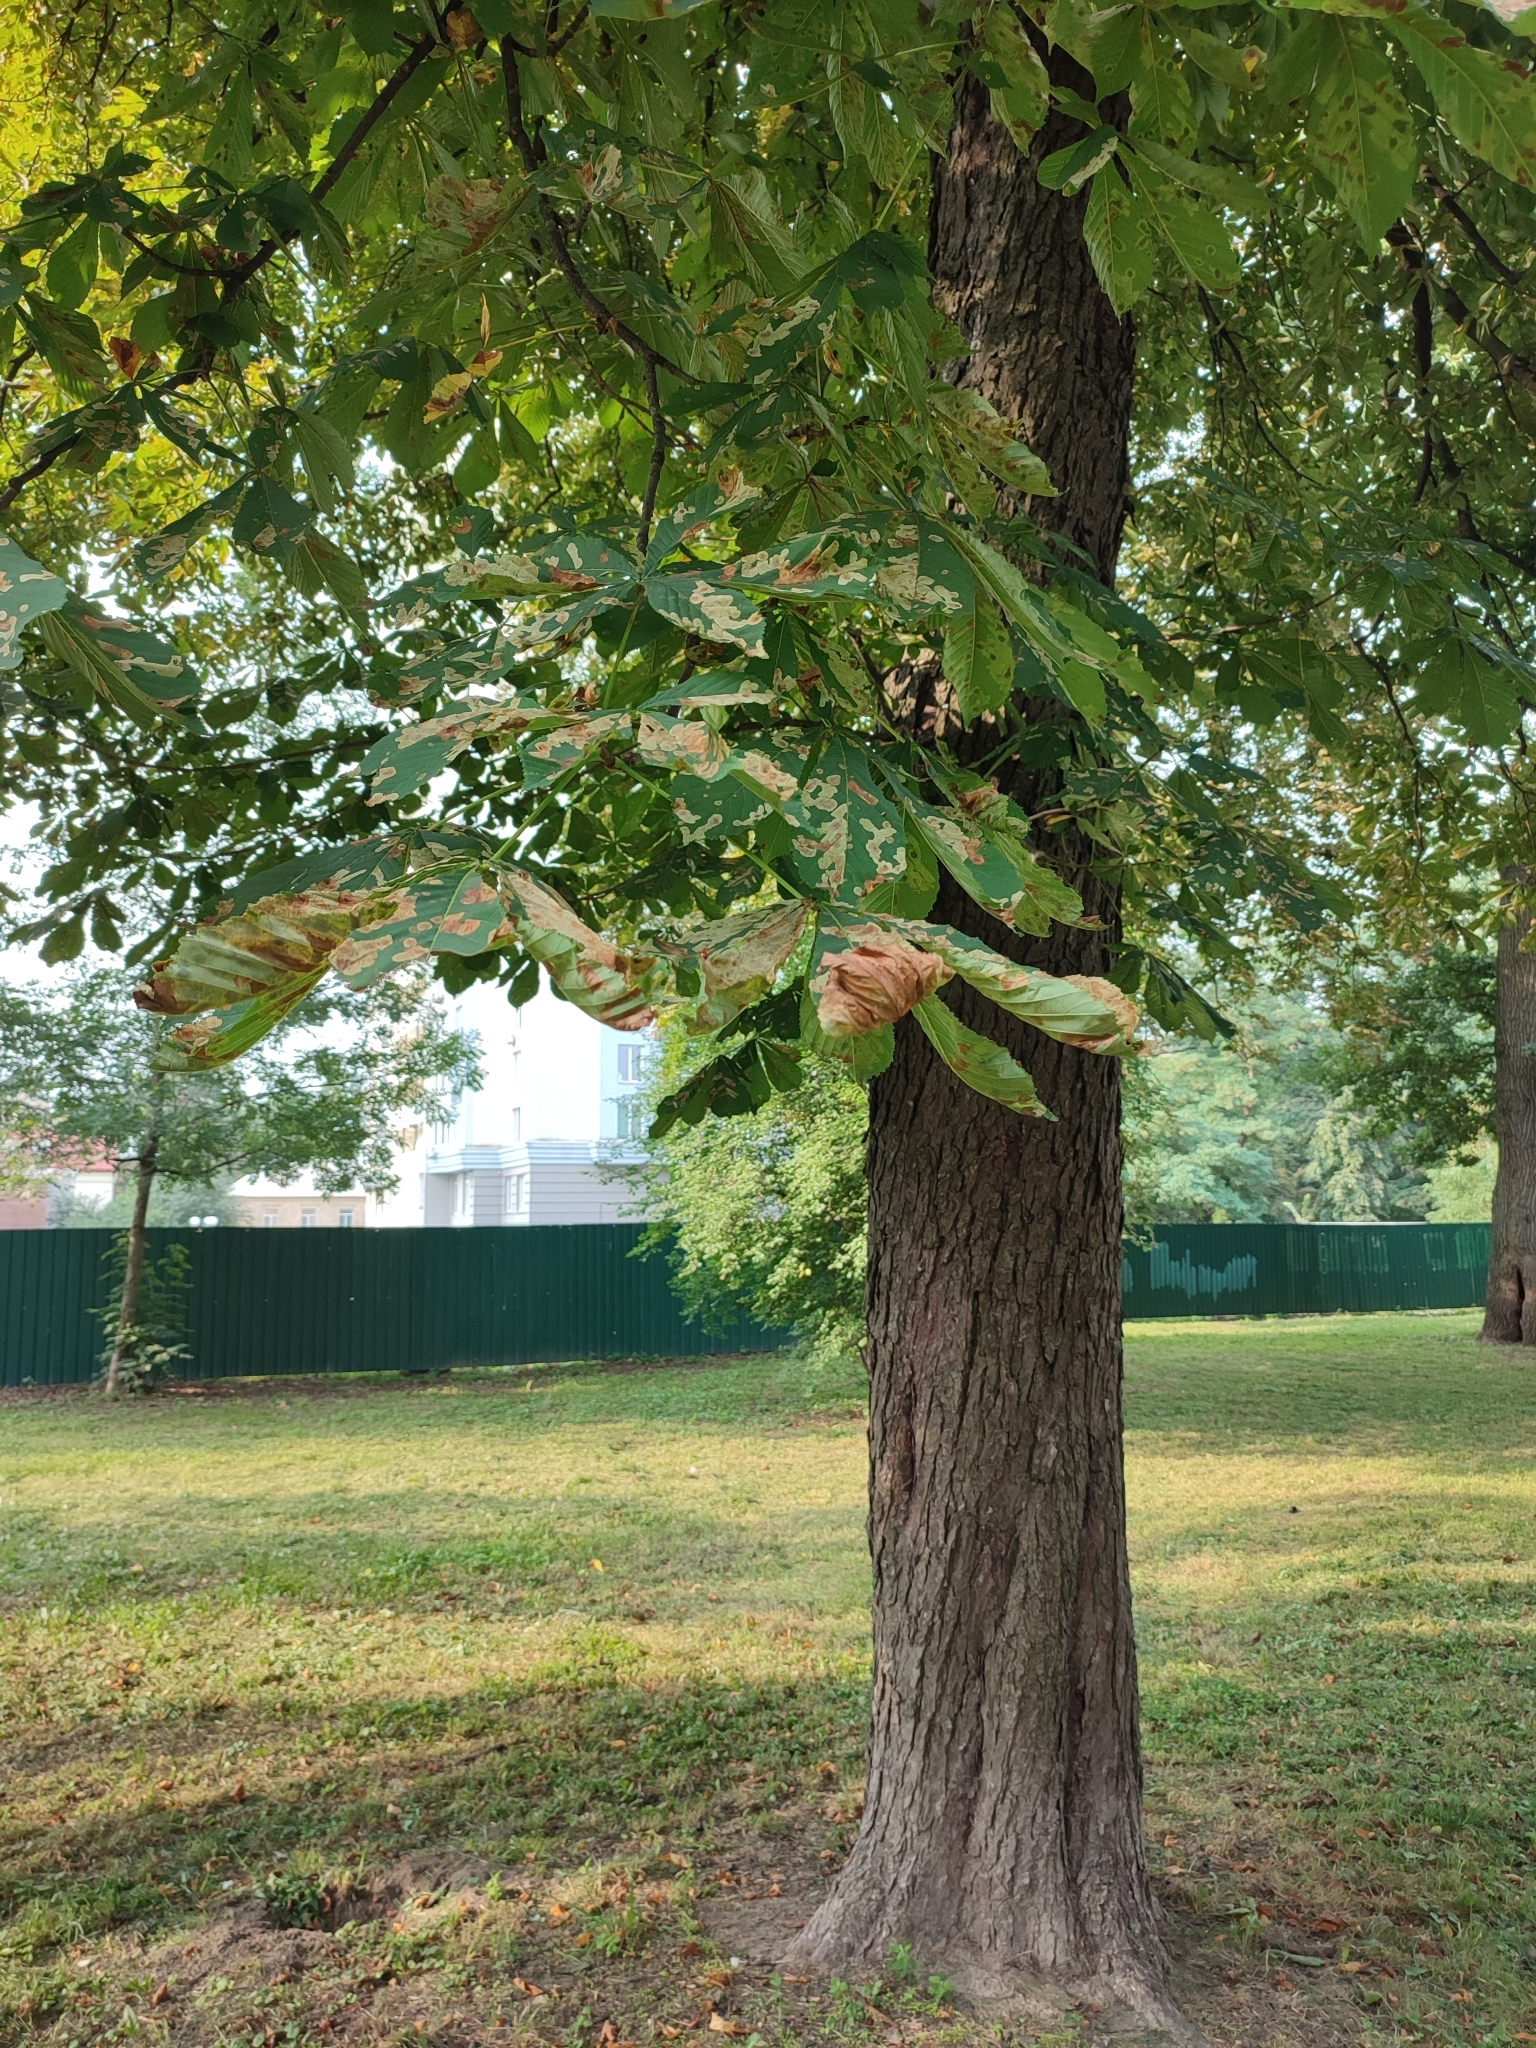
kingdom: Animalia
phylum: Arthropoda
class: Insecta
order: Lepidoptera
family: Gracillariidae
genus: Cameraria
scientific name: Cameraria ohridella
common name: Horse-chestnut leaf-miner
